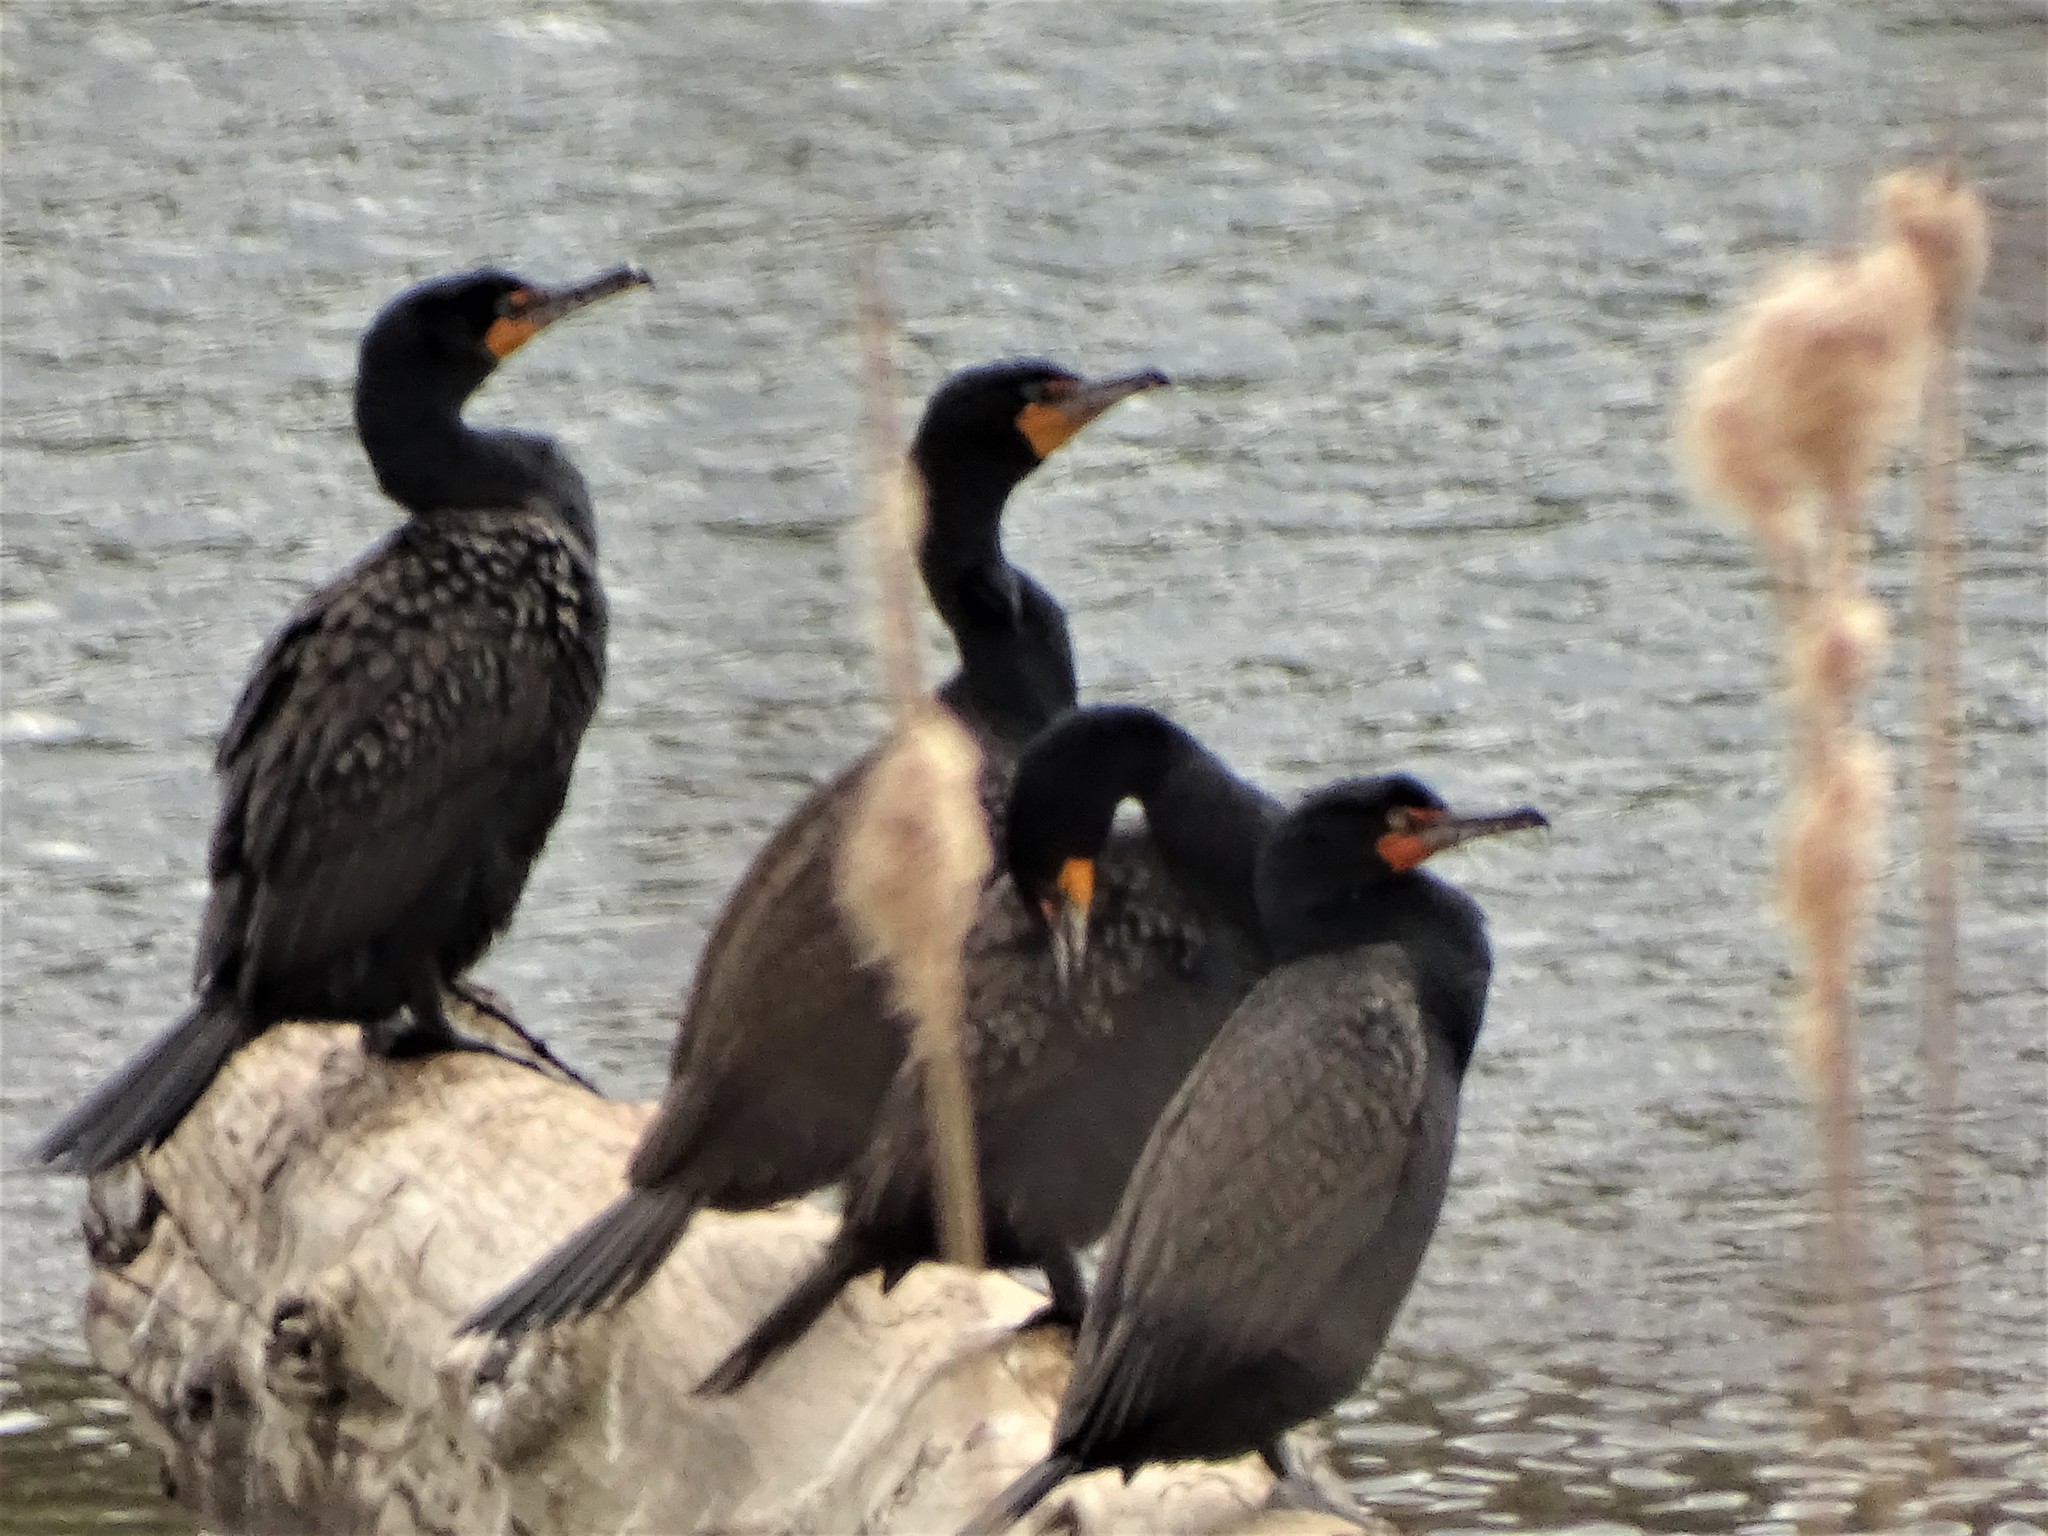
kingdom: Animalia
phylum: Chordata
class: Aves
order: Suliformes
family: Phalacrocoracidae
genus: Phalacrocorax
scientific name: Phalacrocorax auritus
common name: Double-crested cormorant
